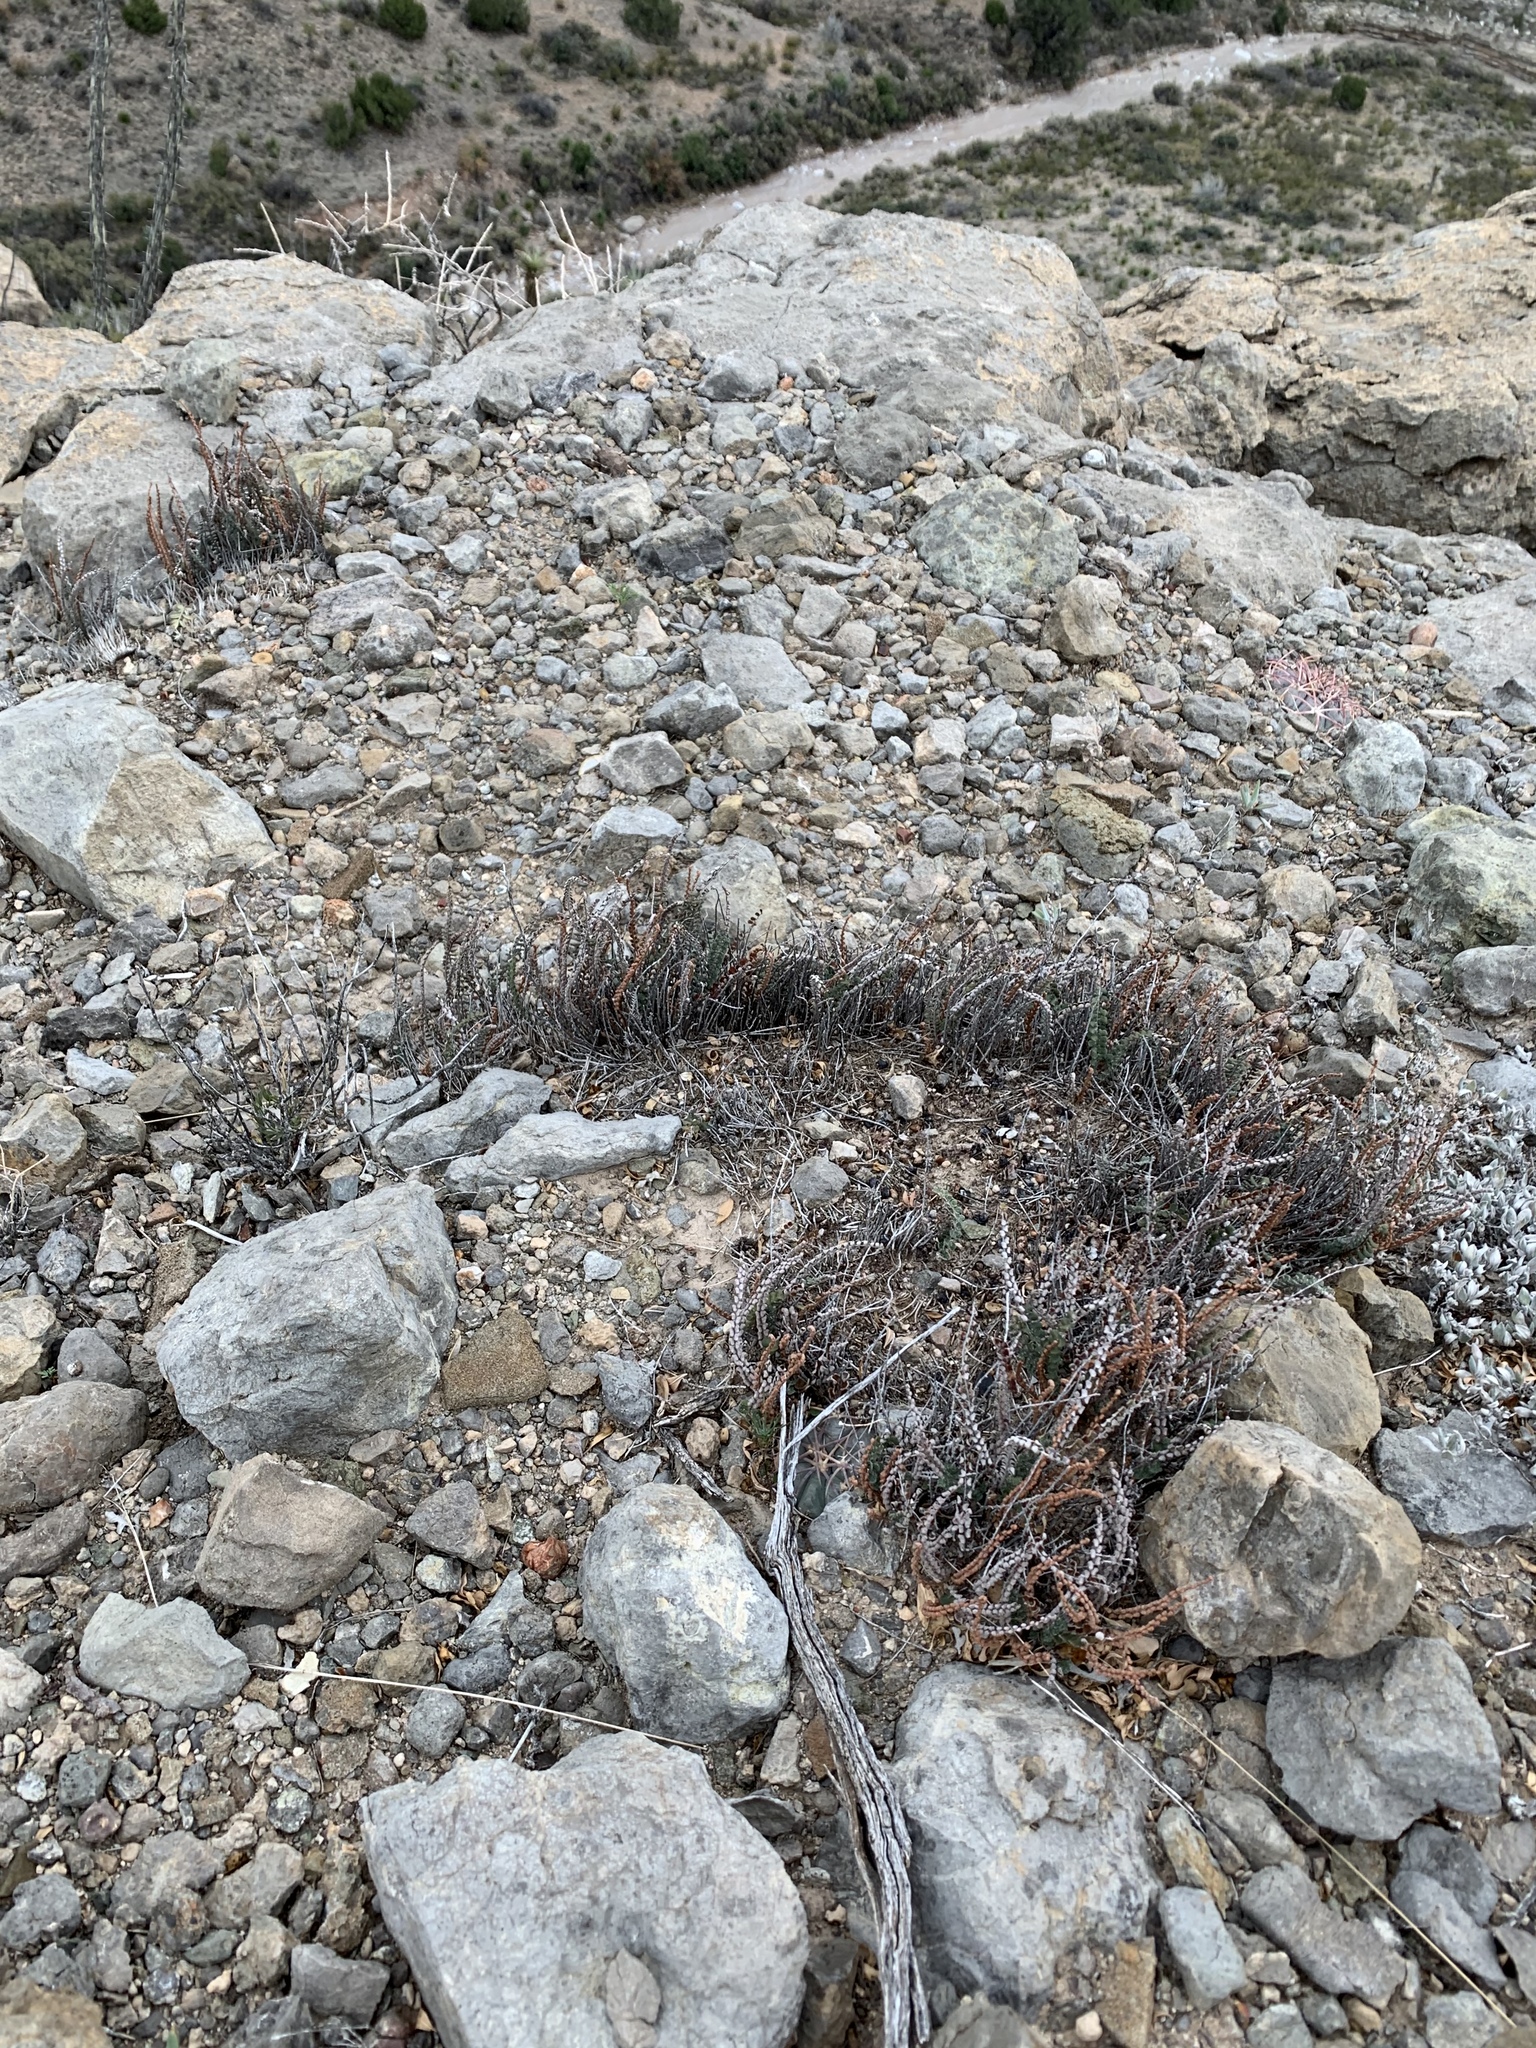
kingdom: Plantae
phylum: Tracheophyta
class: Polypodiopsida
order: Polypodiales
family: Pteridaceae
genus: Astrolepis
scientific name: Astrolepis cochisensis
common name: Scaly cloak fern
